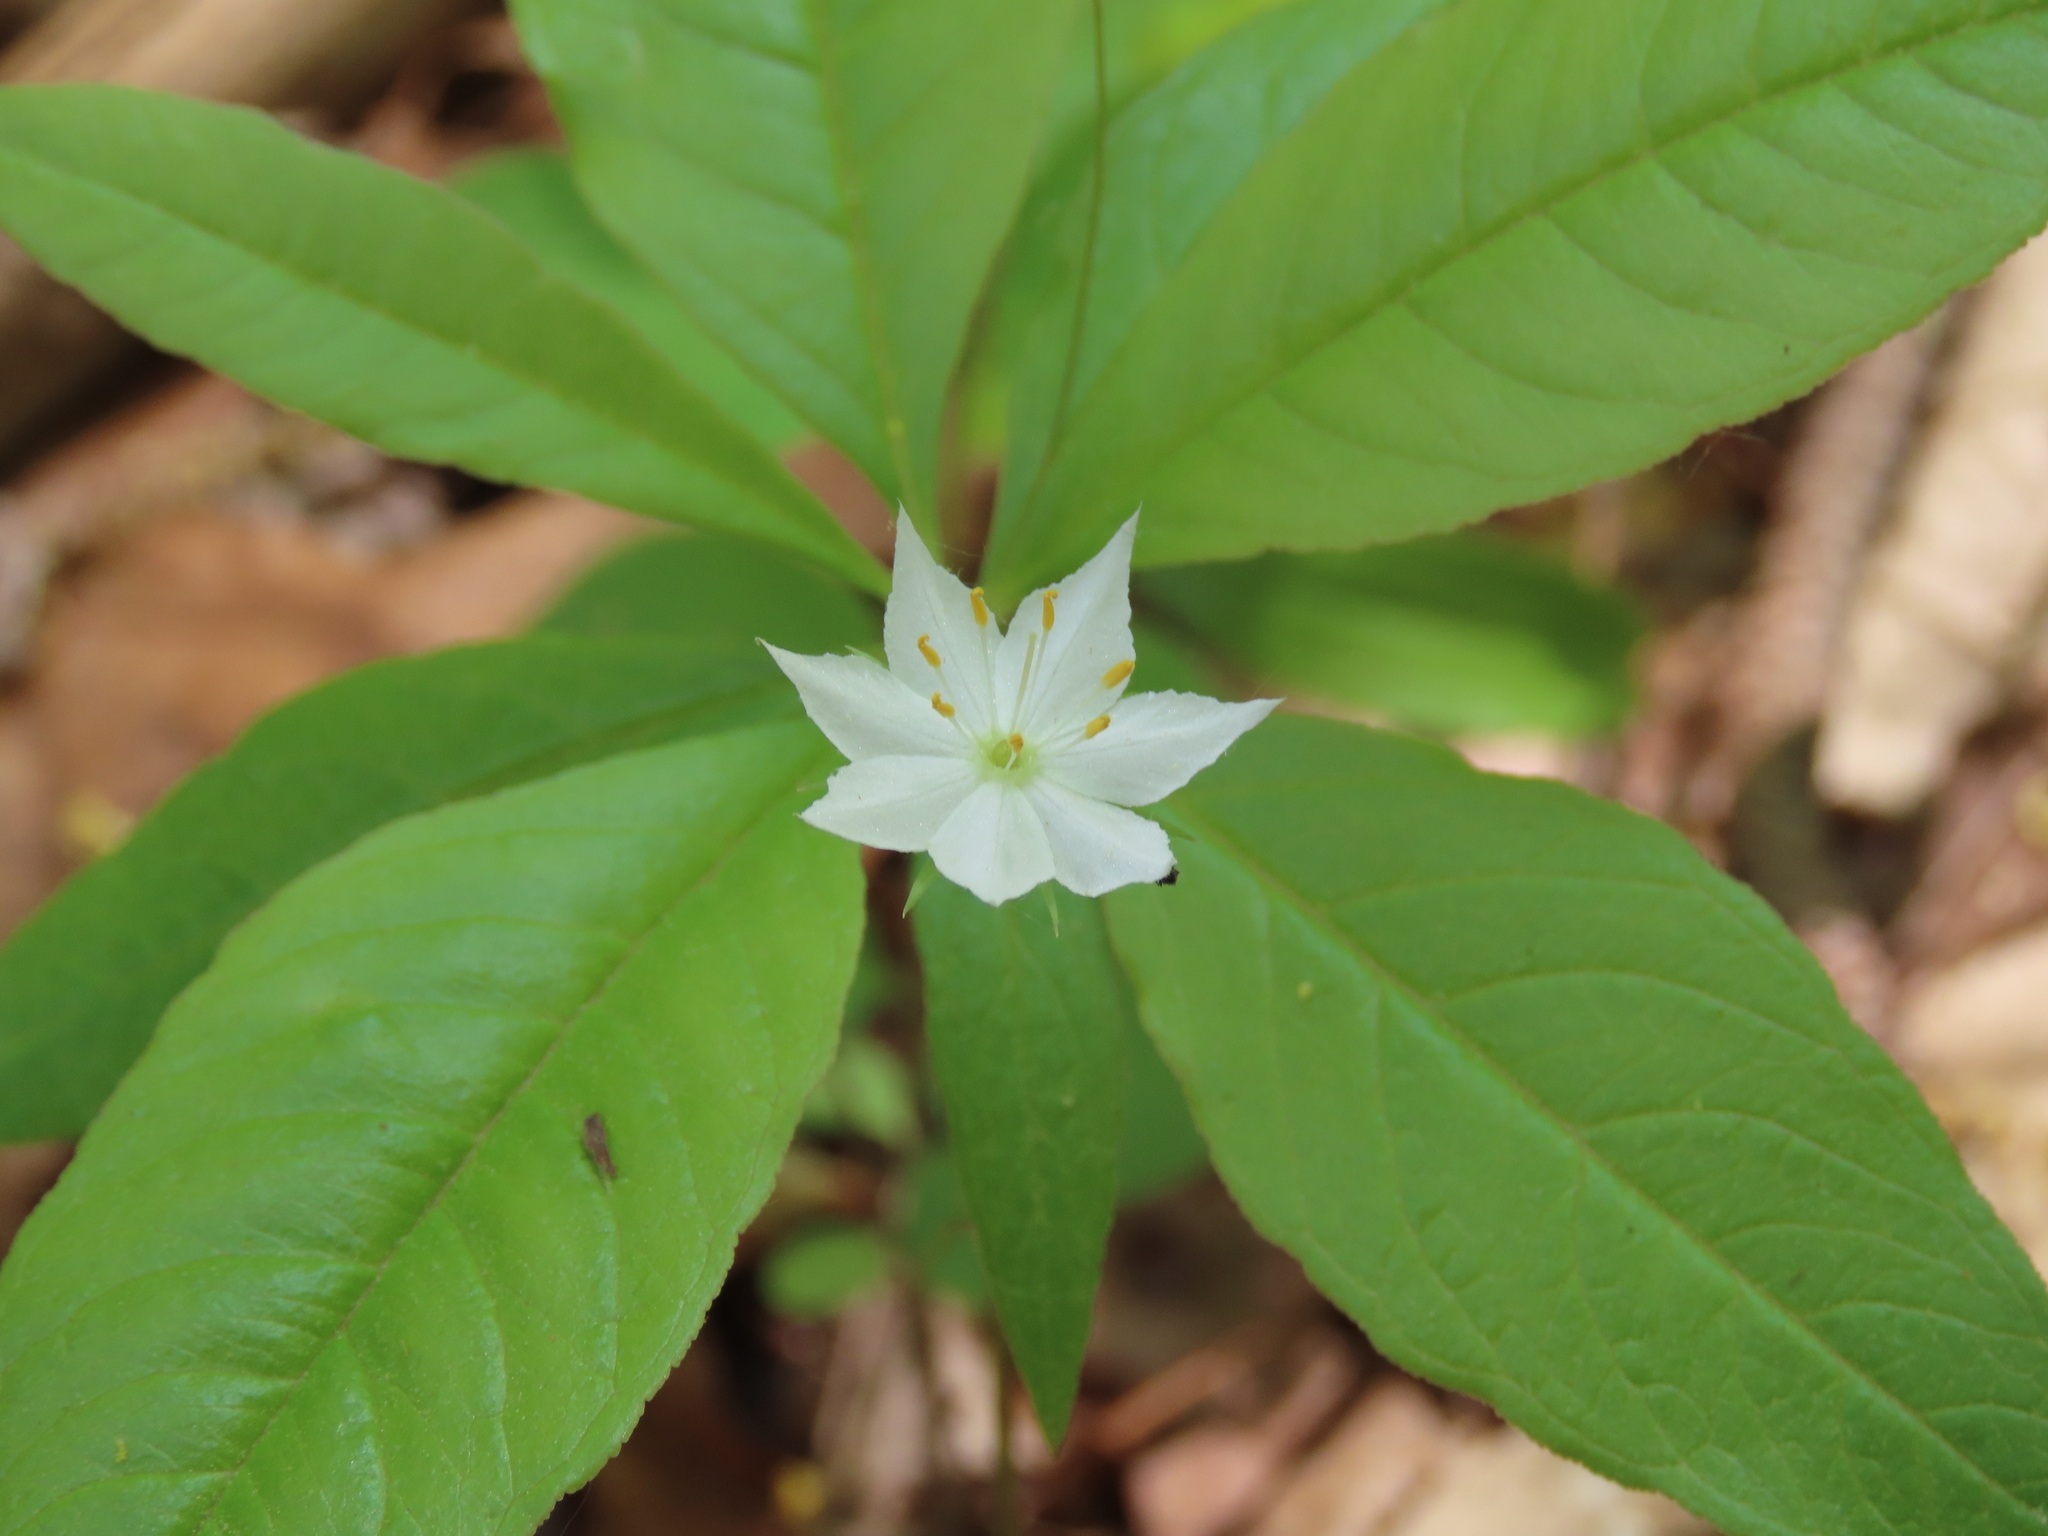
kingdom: Plantae
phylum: Tracheophyta
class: Magnoliopsida
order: Ericales
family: Primulaceae
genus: Lysimachia
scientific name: Lysimachia borealis
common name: American starflower
